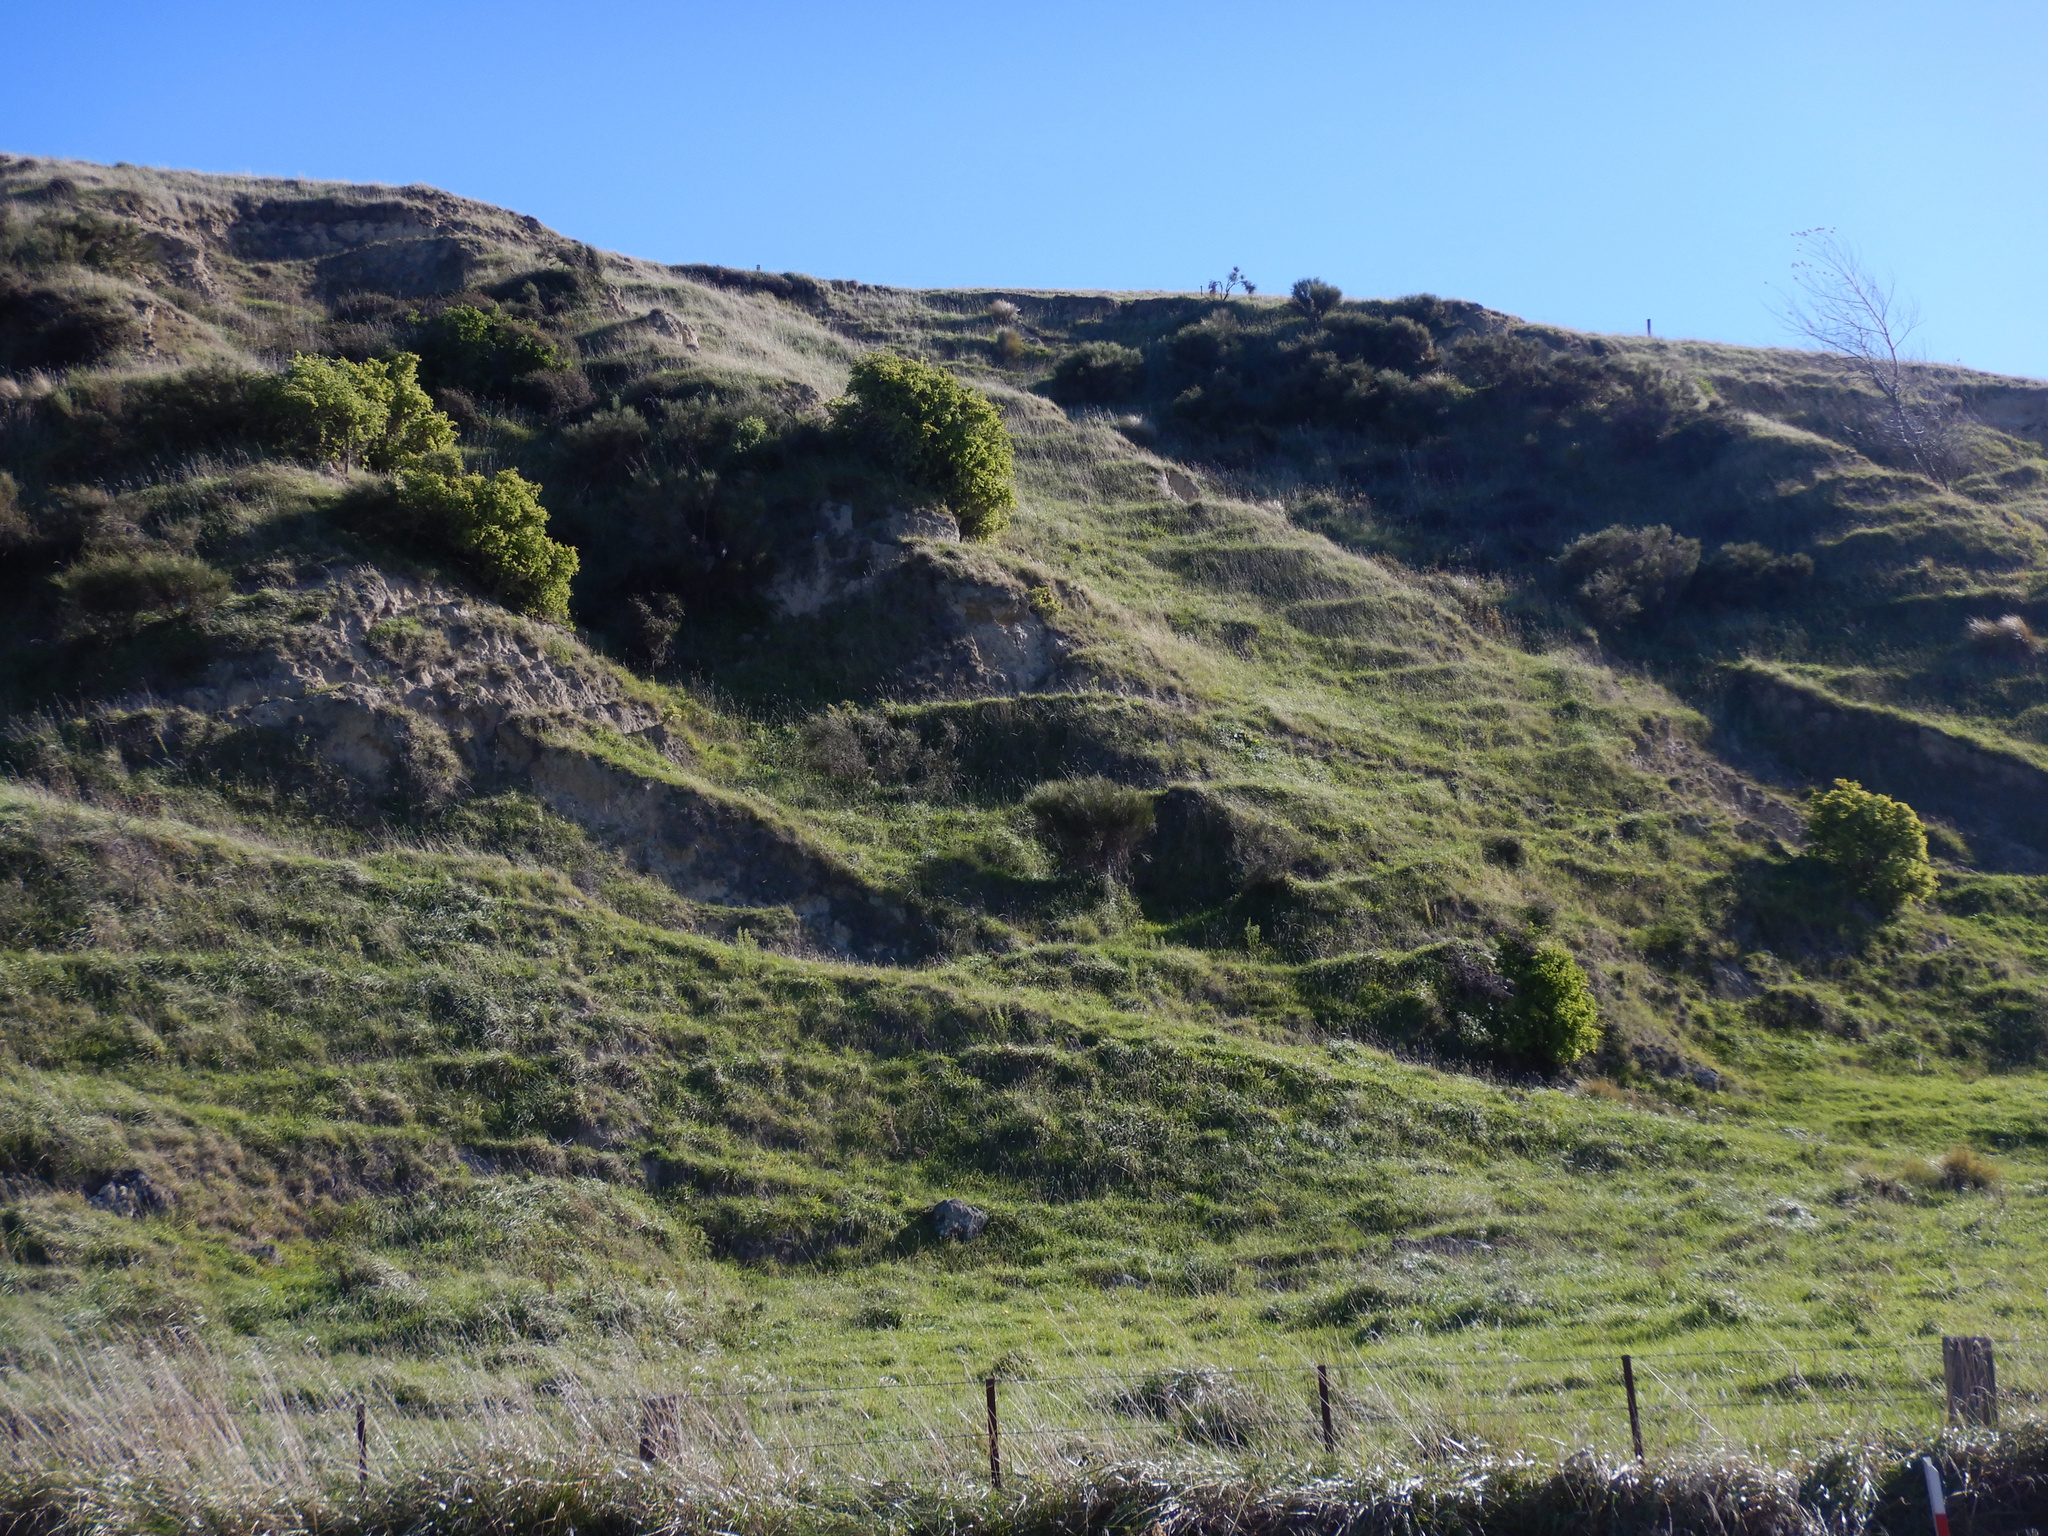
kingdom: Plantae
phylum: Tracheophyta
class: Magnoliopsida
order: Solanales
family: Solanaceae
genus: Lycium
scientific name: Lycium ferocissimum
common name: African boxthorn
